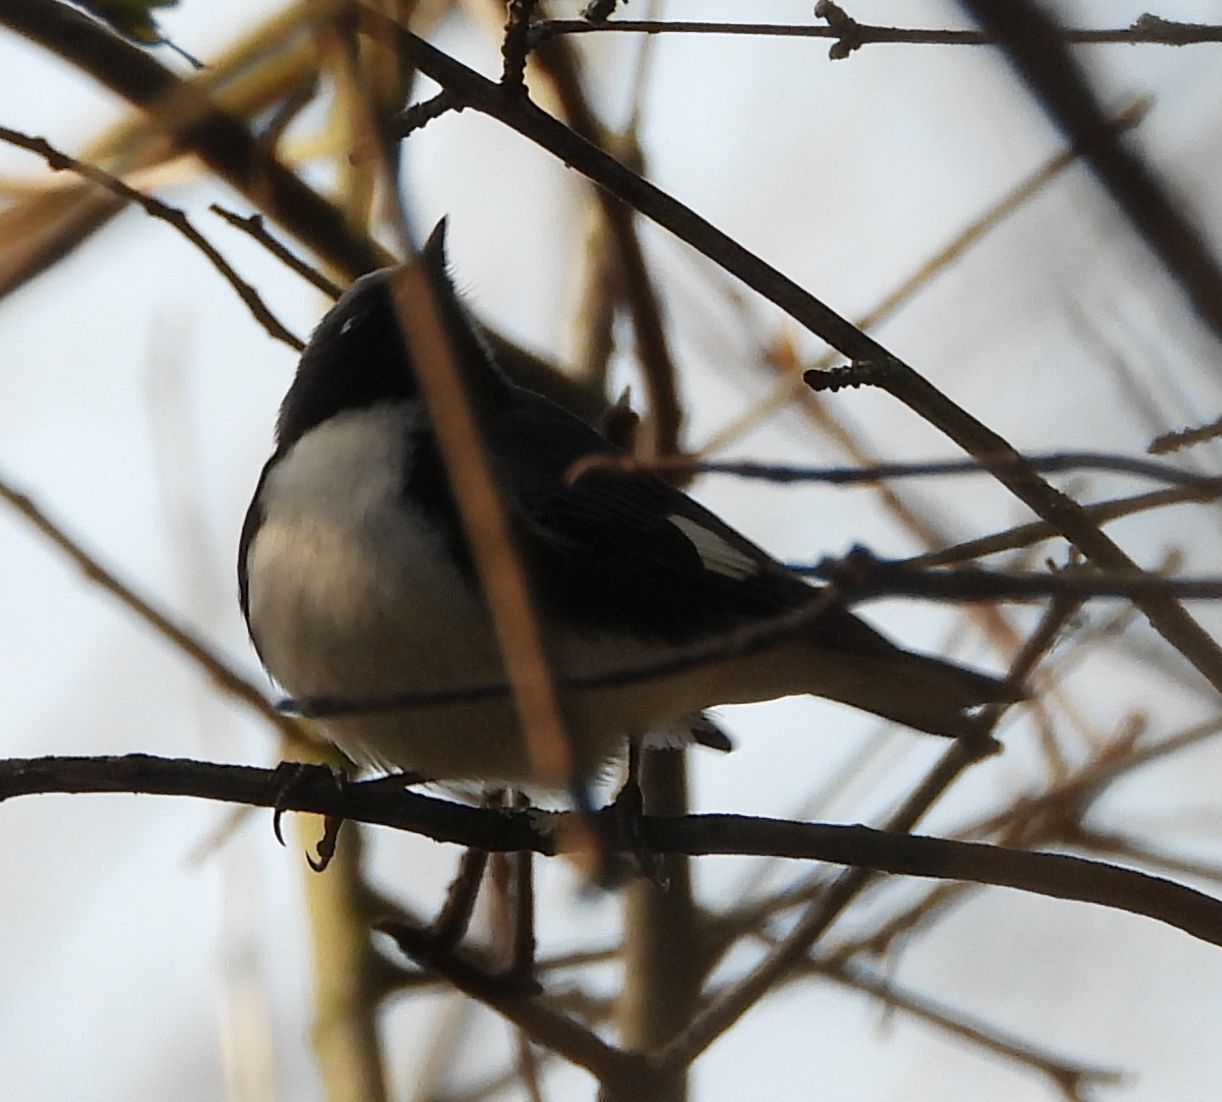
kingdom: Animalia
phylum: Chordata
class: Aves
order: Passeriformes
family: Parulidae
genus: Setophaga
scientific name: Setophaga caerulescens
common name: Black-throated blue warbler
